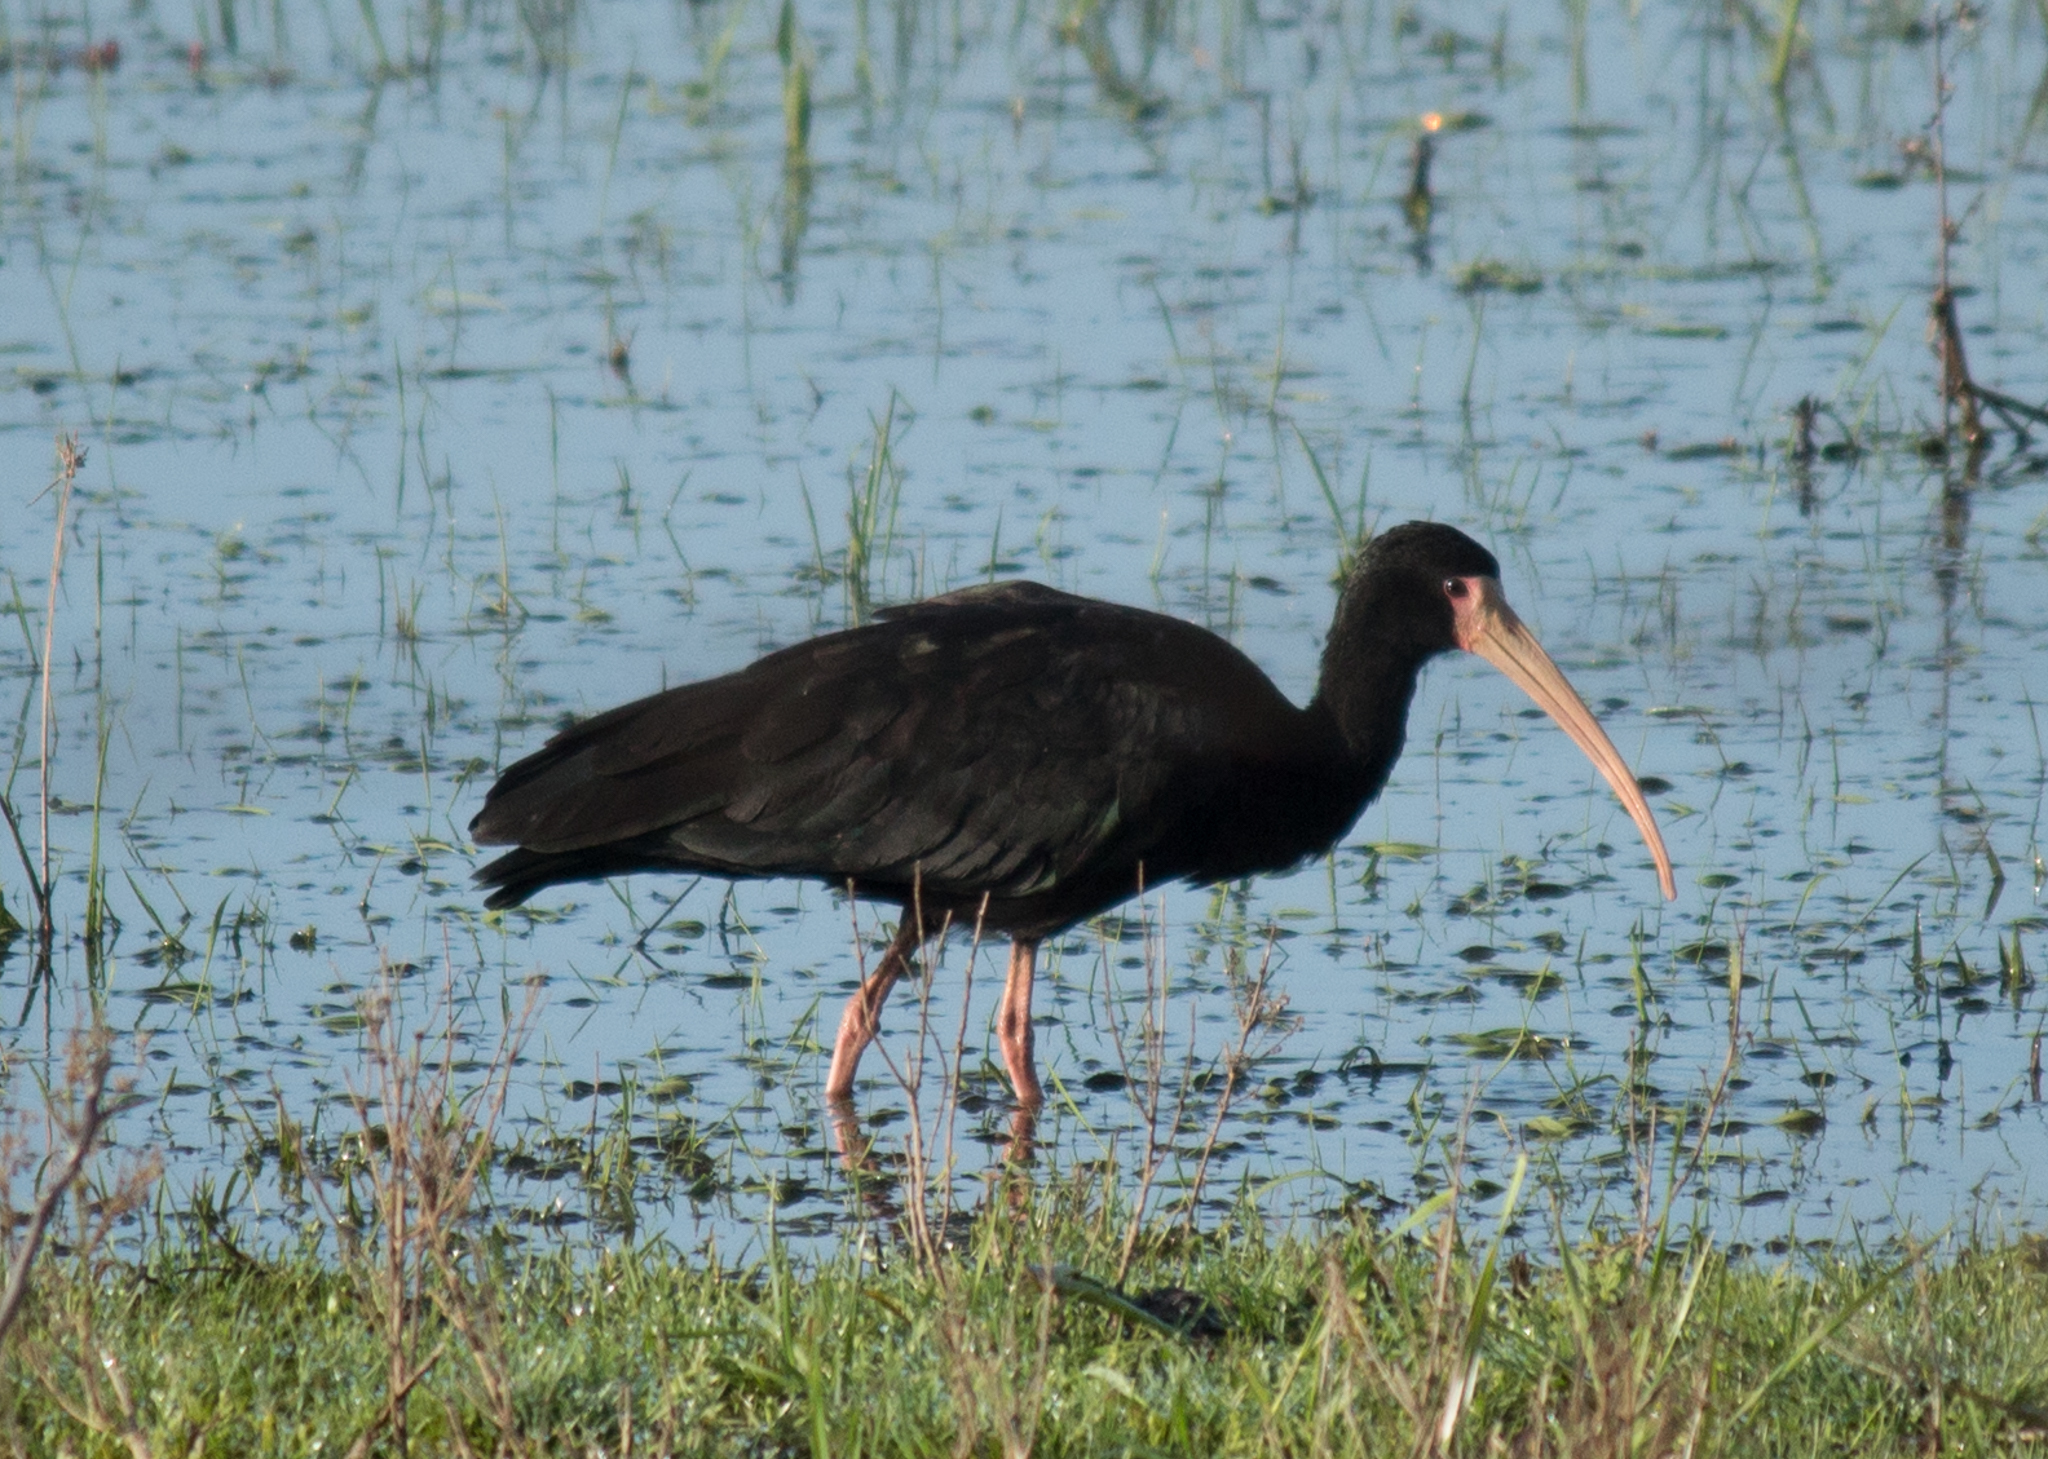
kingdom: Animalia
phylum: Chordata
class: Aves
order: Pelecaniformes
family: Threskiornithidae
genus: Phimosus
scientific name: Phimosus infuscatus
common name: Bare-faced ibis
